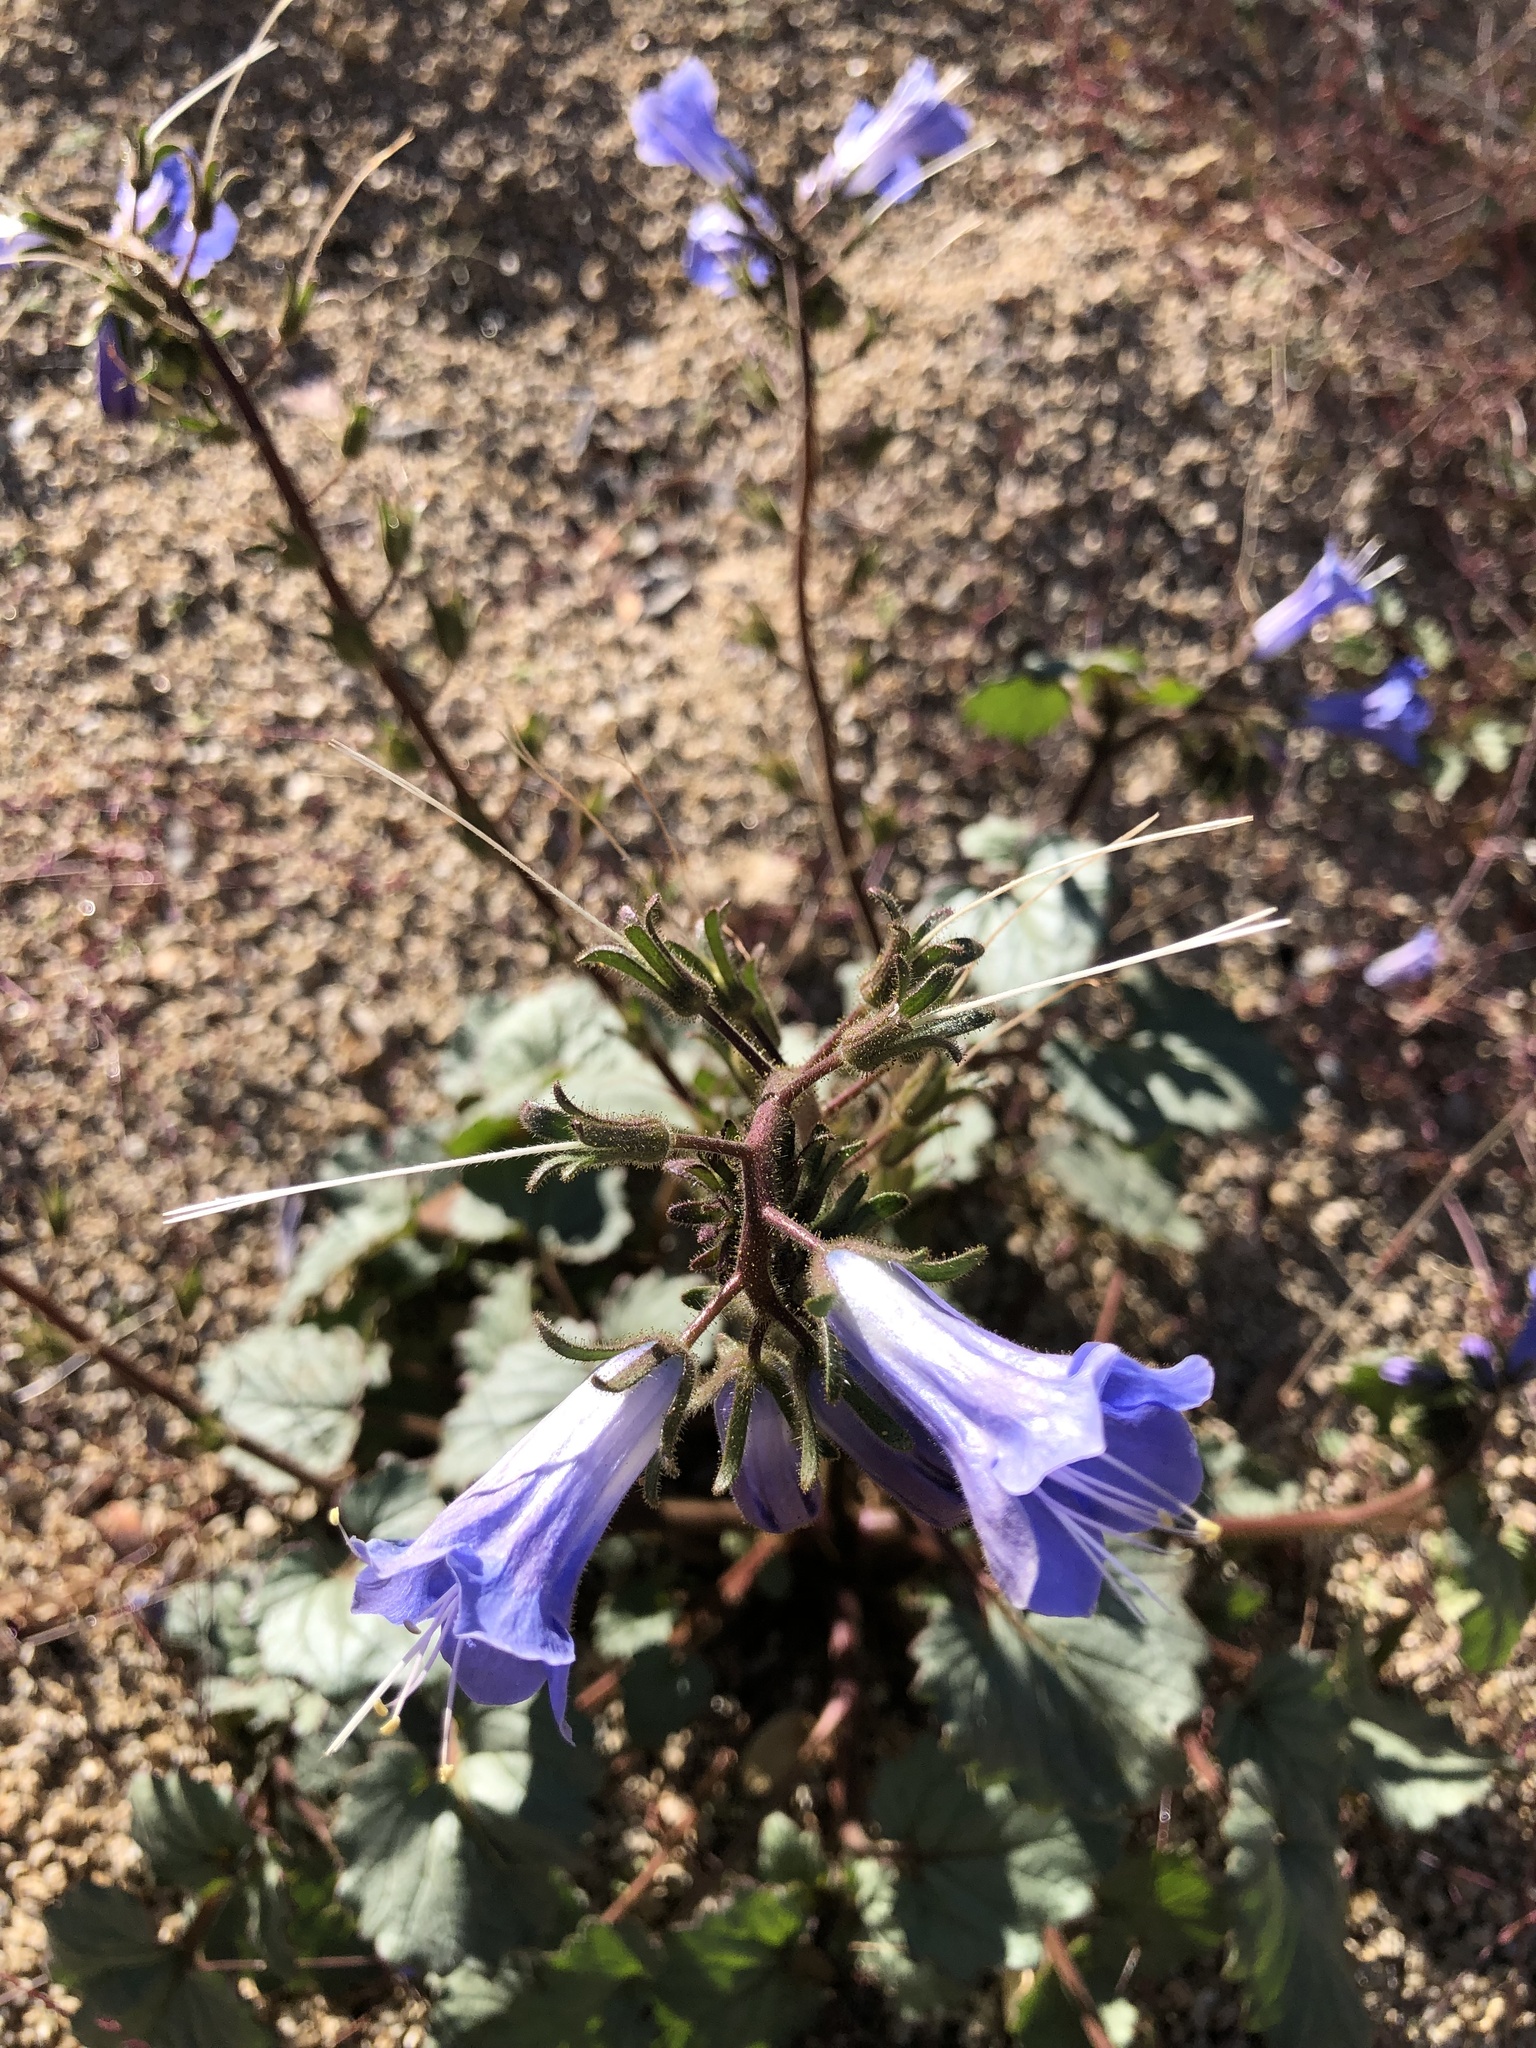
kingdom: Plantae
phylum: Tracheophyta
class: Magnoliopsida
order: Boraginales
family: Hydrophyllaceae
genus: Phacelia
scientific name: Phacelia campanularia
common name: California bluebell
